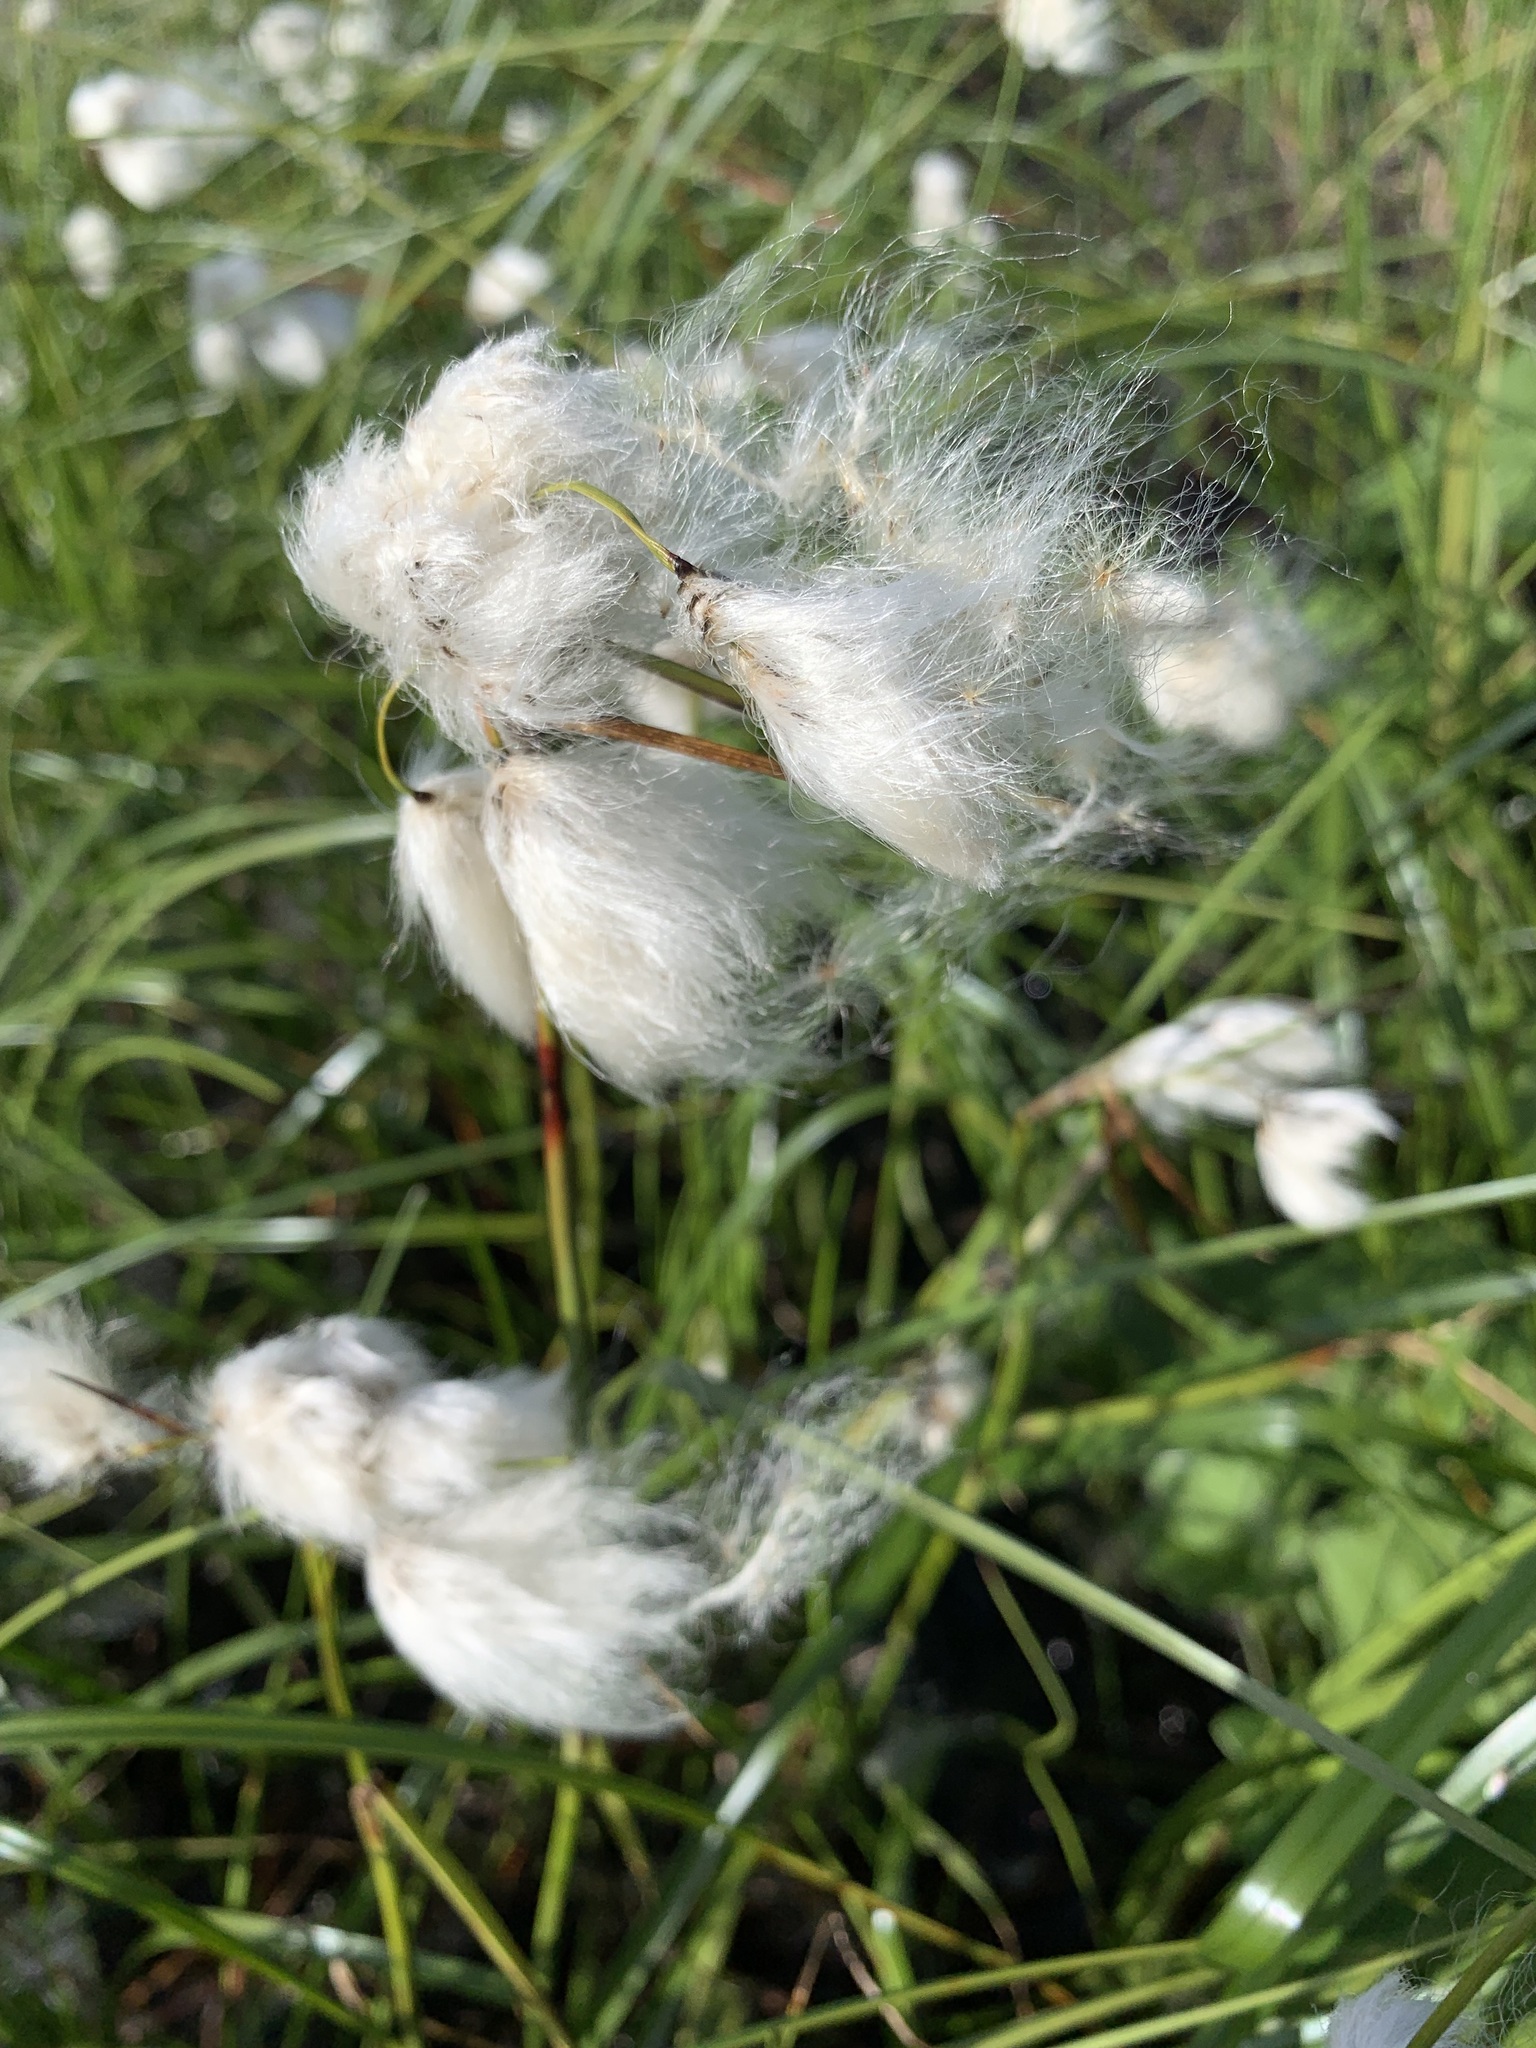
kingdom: Plantae
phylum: Tracheophyta
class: Liliopsida
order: Poales
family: Cyperaceae
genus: Eriophorum
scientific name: Eriophorum angustifolium
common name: Common cottongrass
